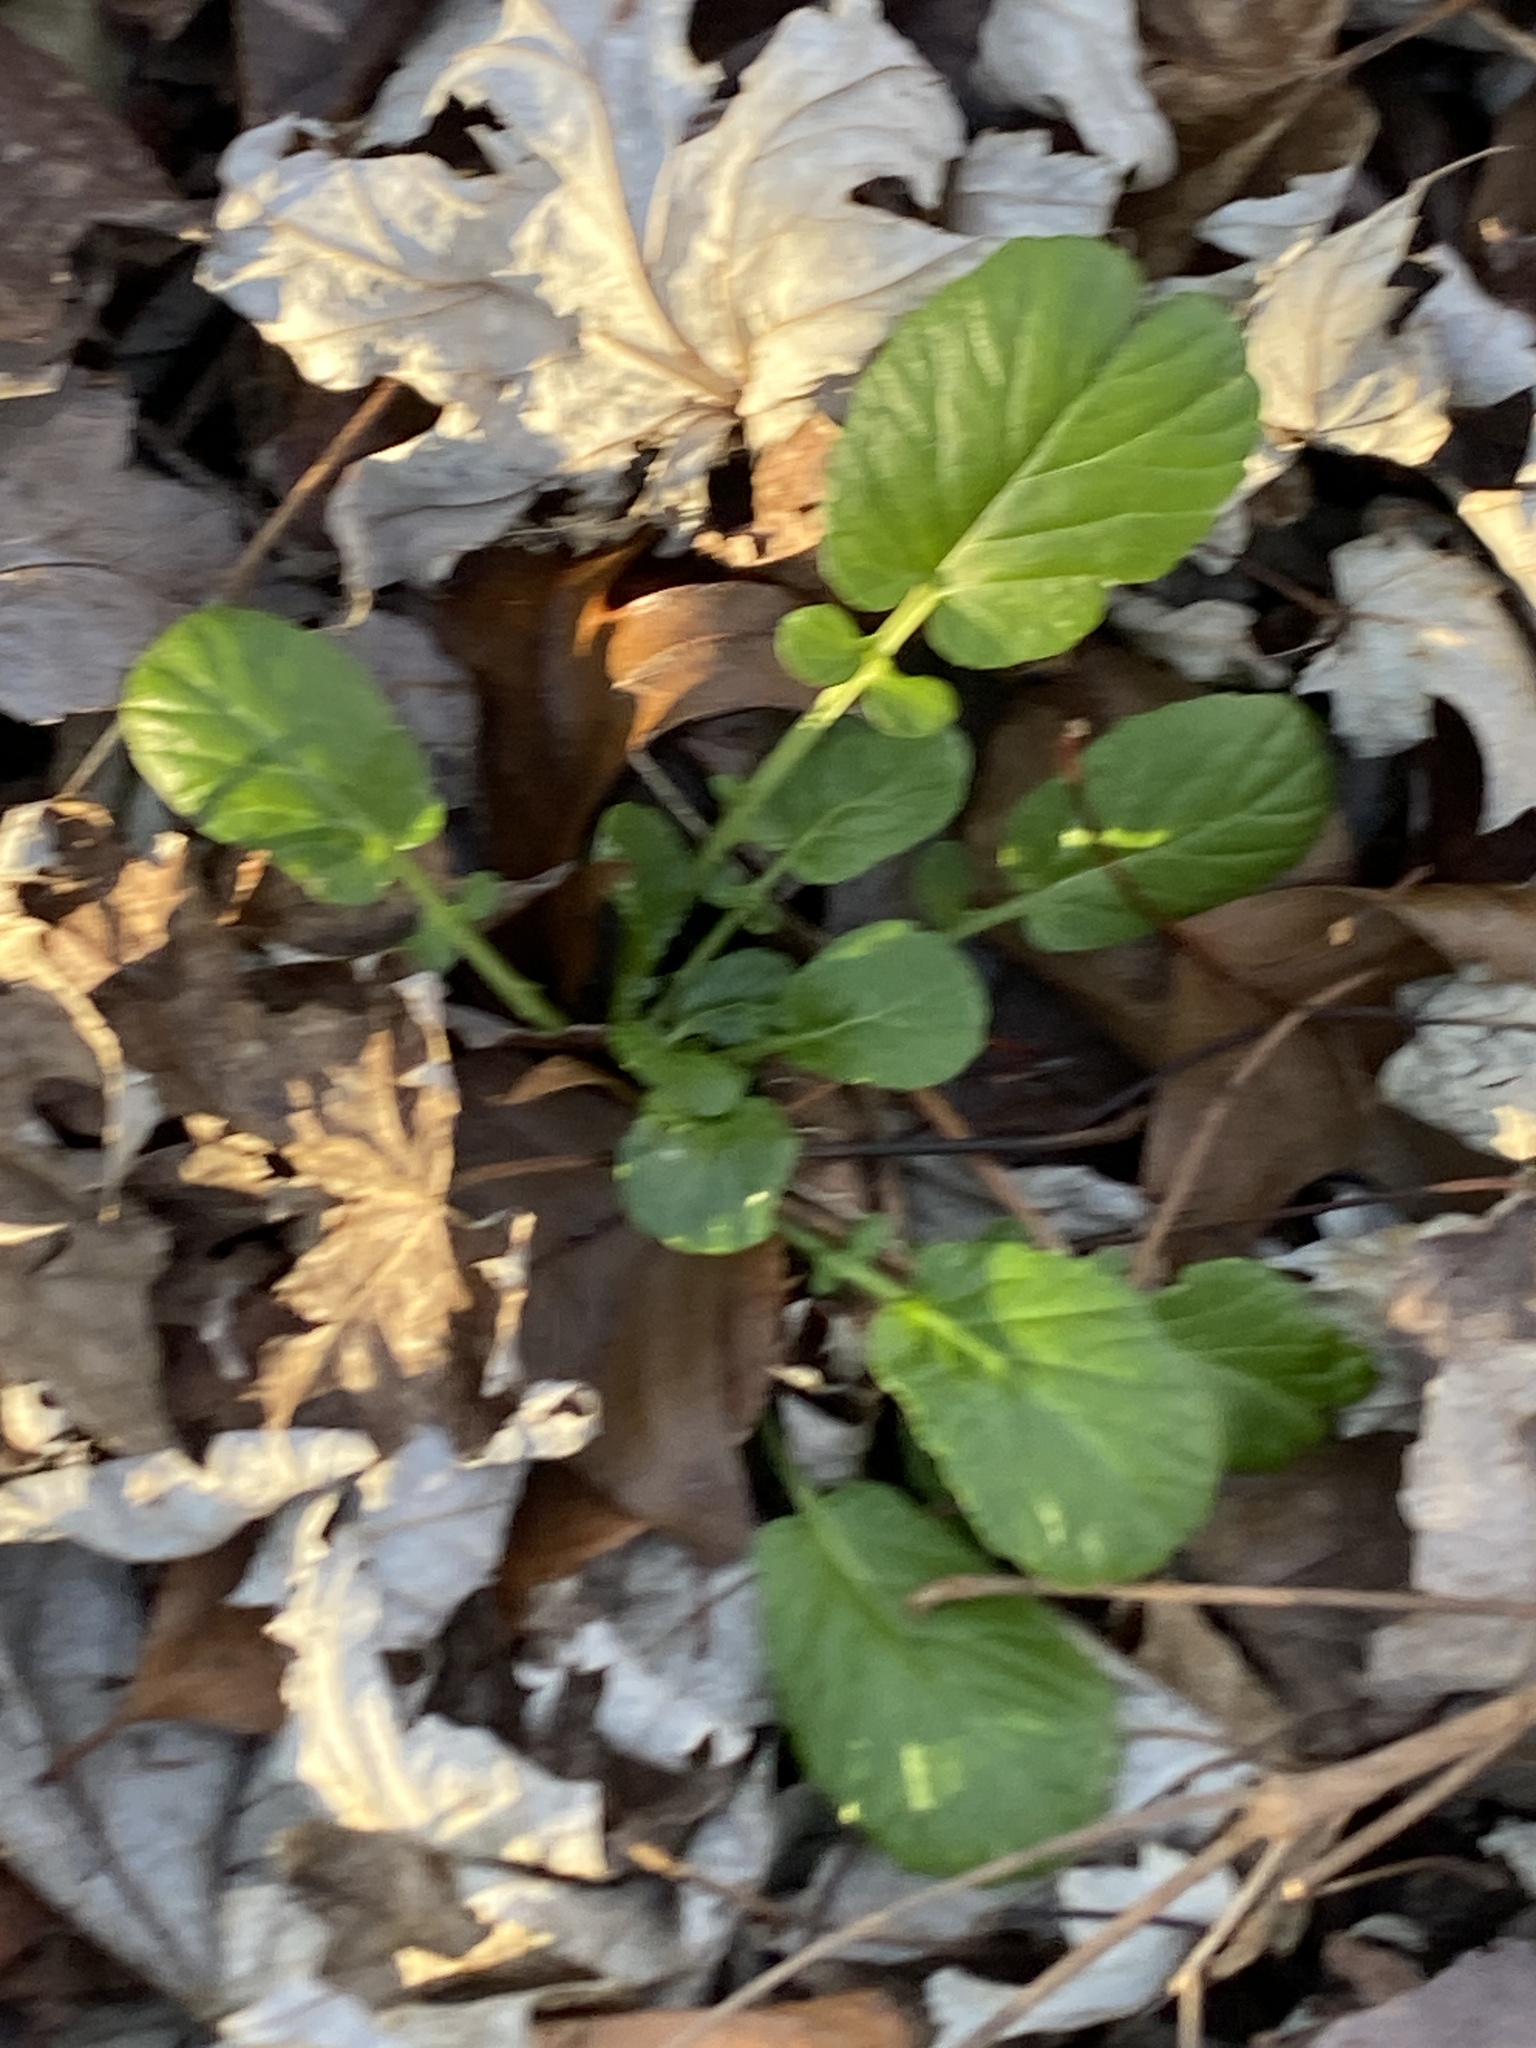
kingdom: Plantae
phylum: Tracheophyta
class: Magnoliopsida
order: Brassicales
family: Brassicaceae
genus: Barbarea
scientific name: Barbarea vulgaris
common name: Cressy-greens
